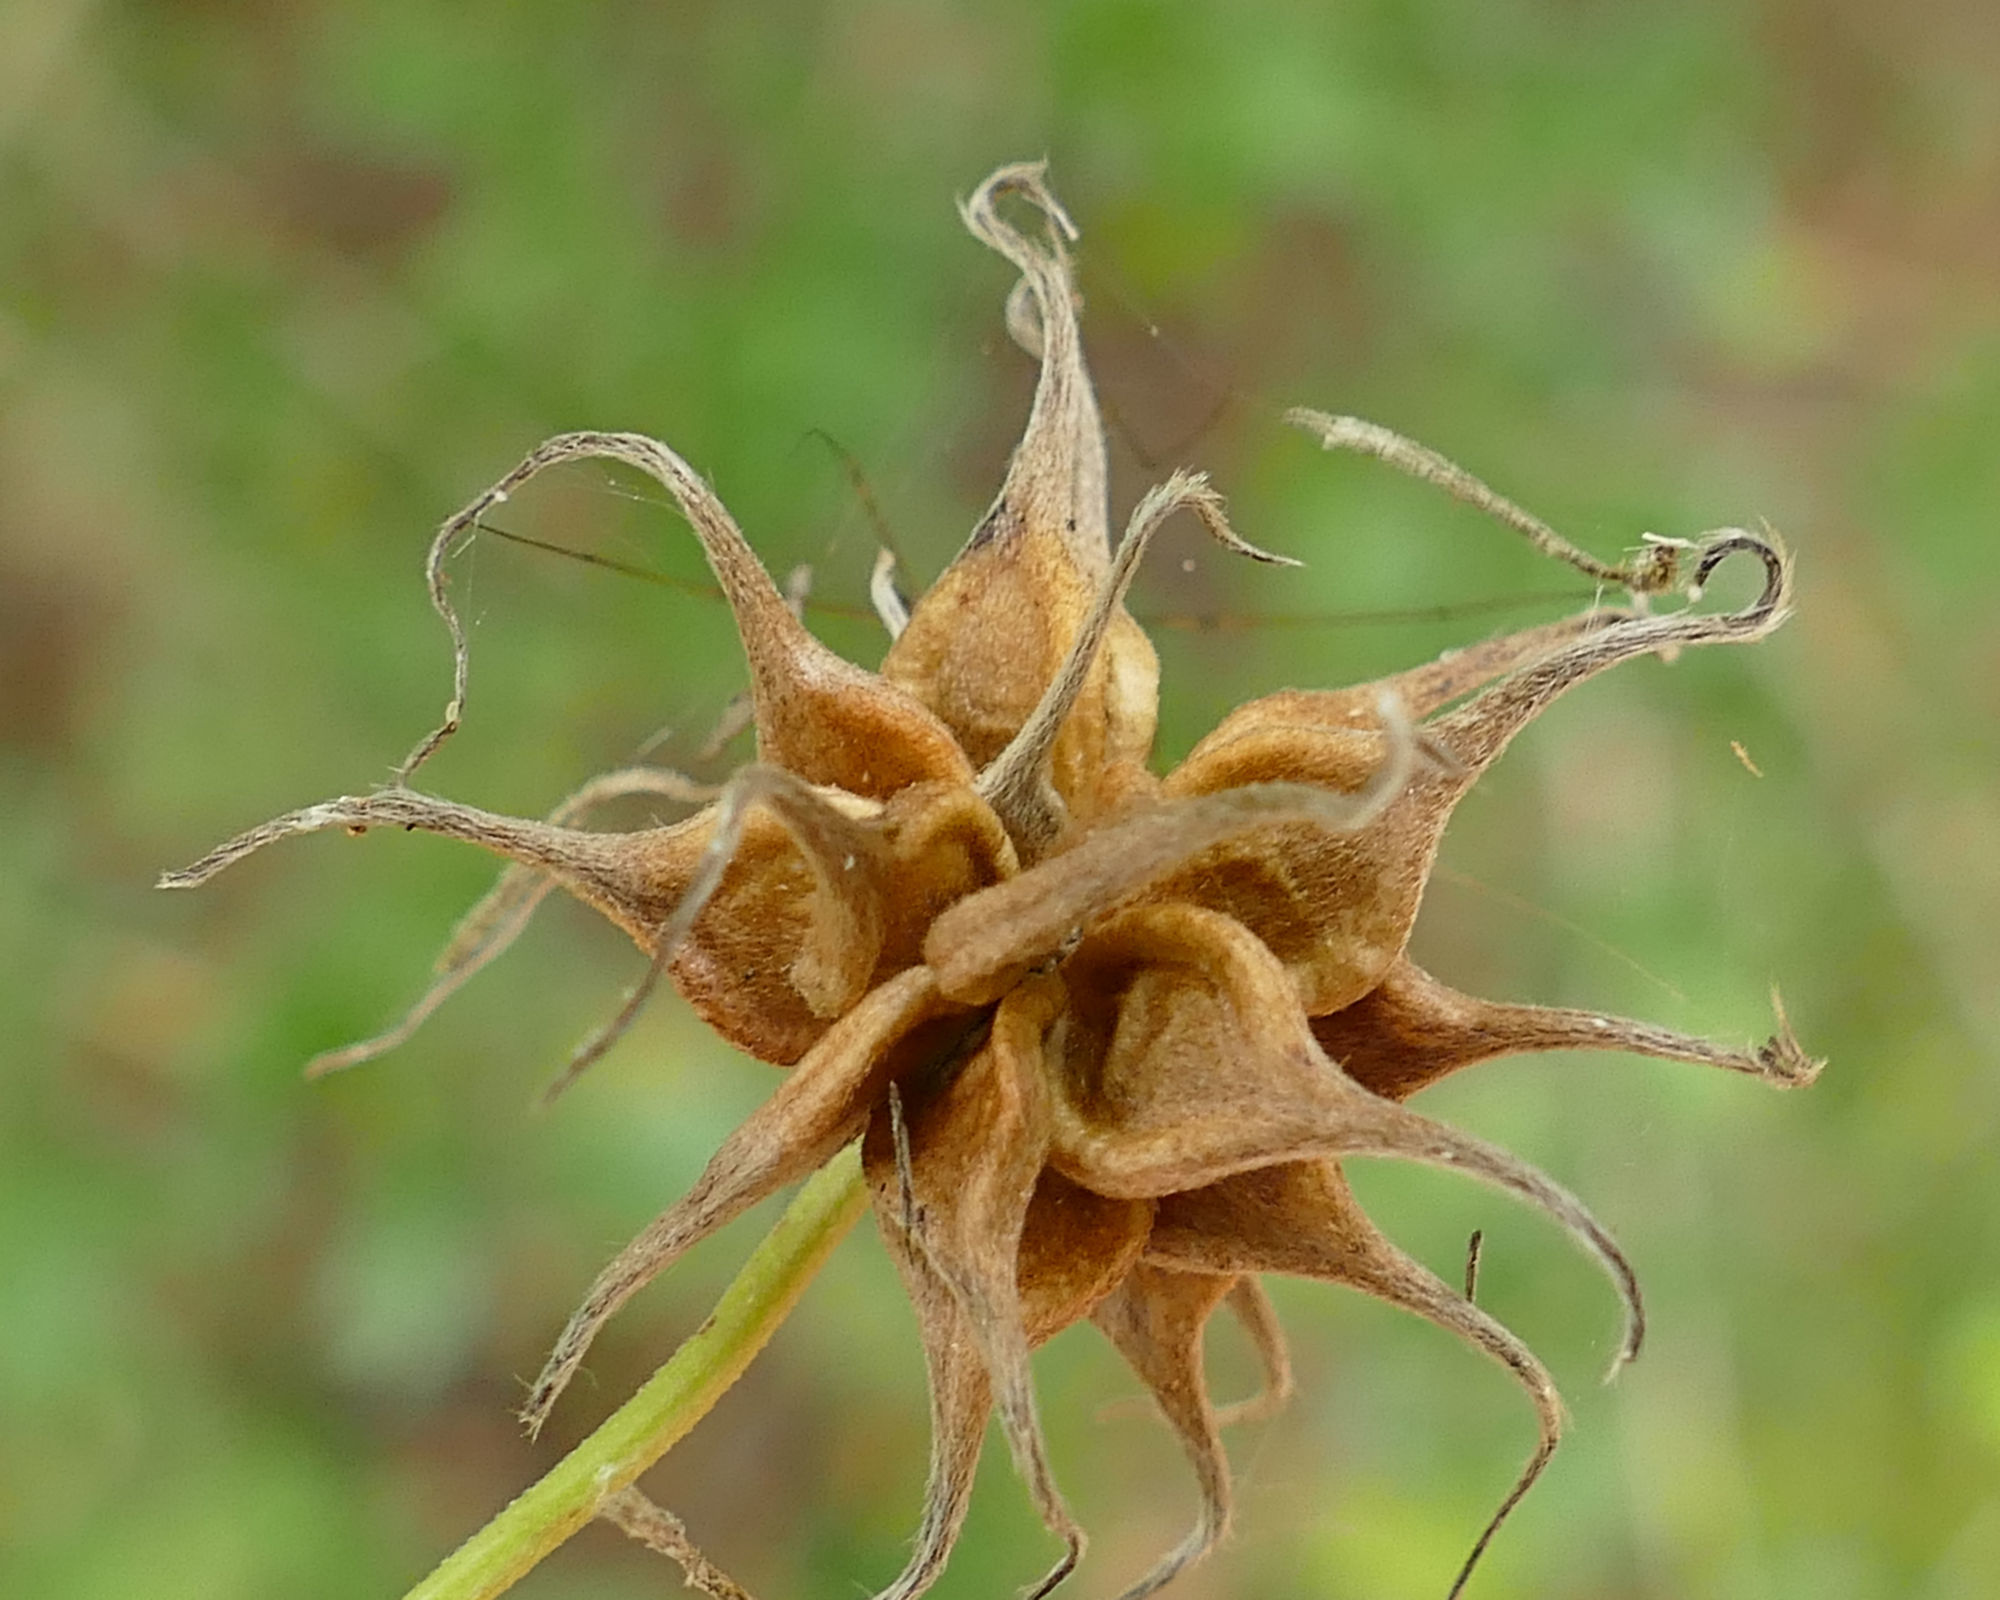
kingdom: Plantae
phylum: Tracheophyta
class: Magnoliopsida
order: Ranunculales
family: Ranunculaceae
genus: Clematis
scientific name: Clematis pitcheri
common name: Bellflower clematis
